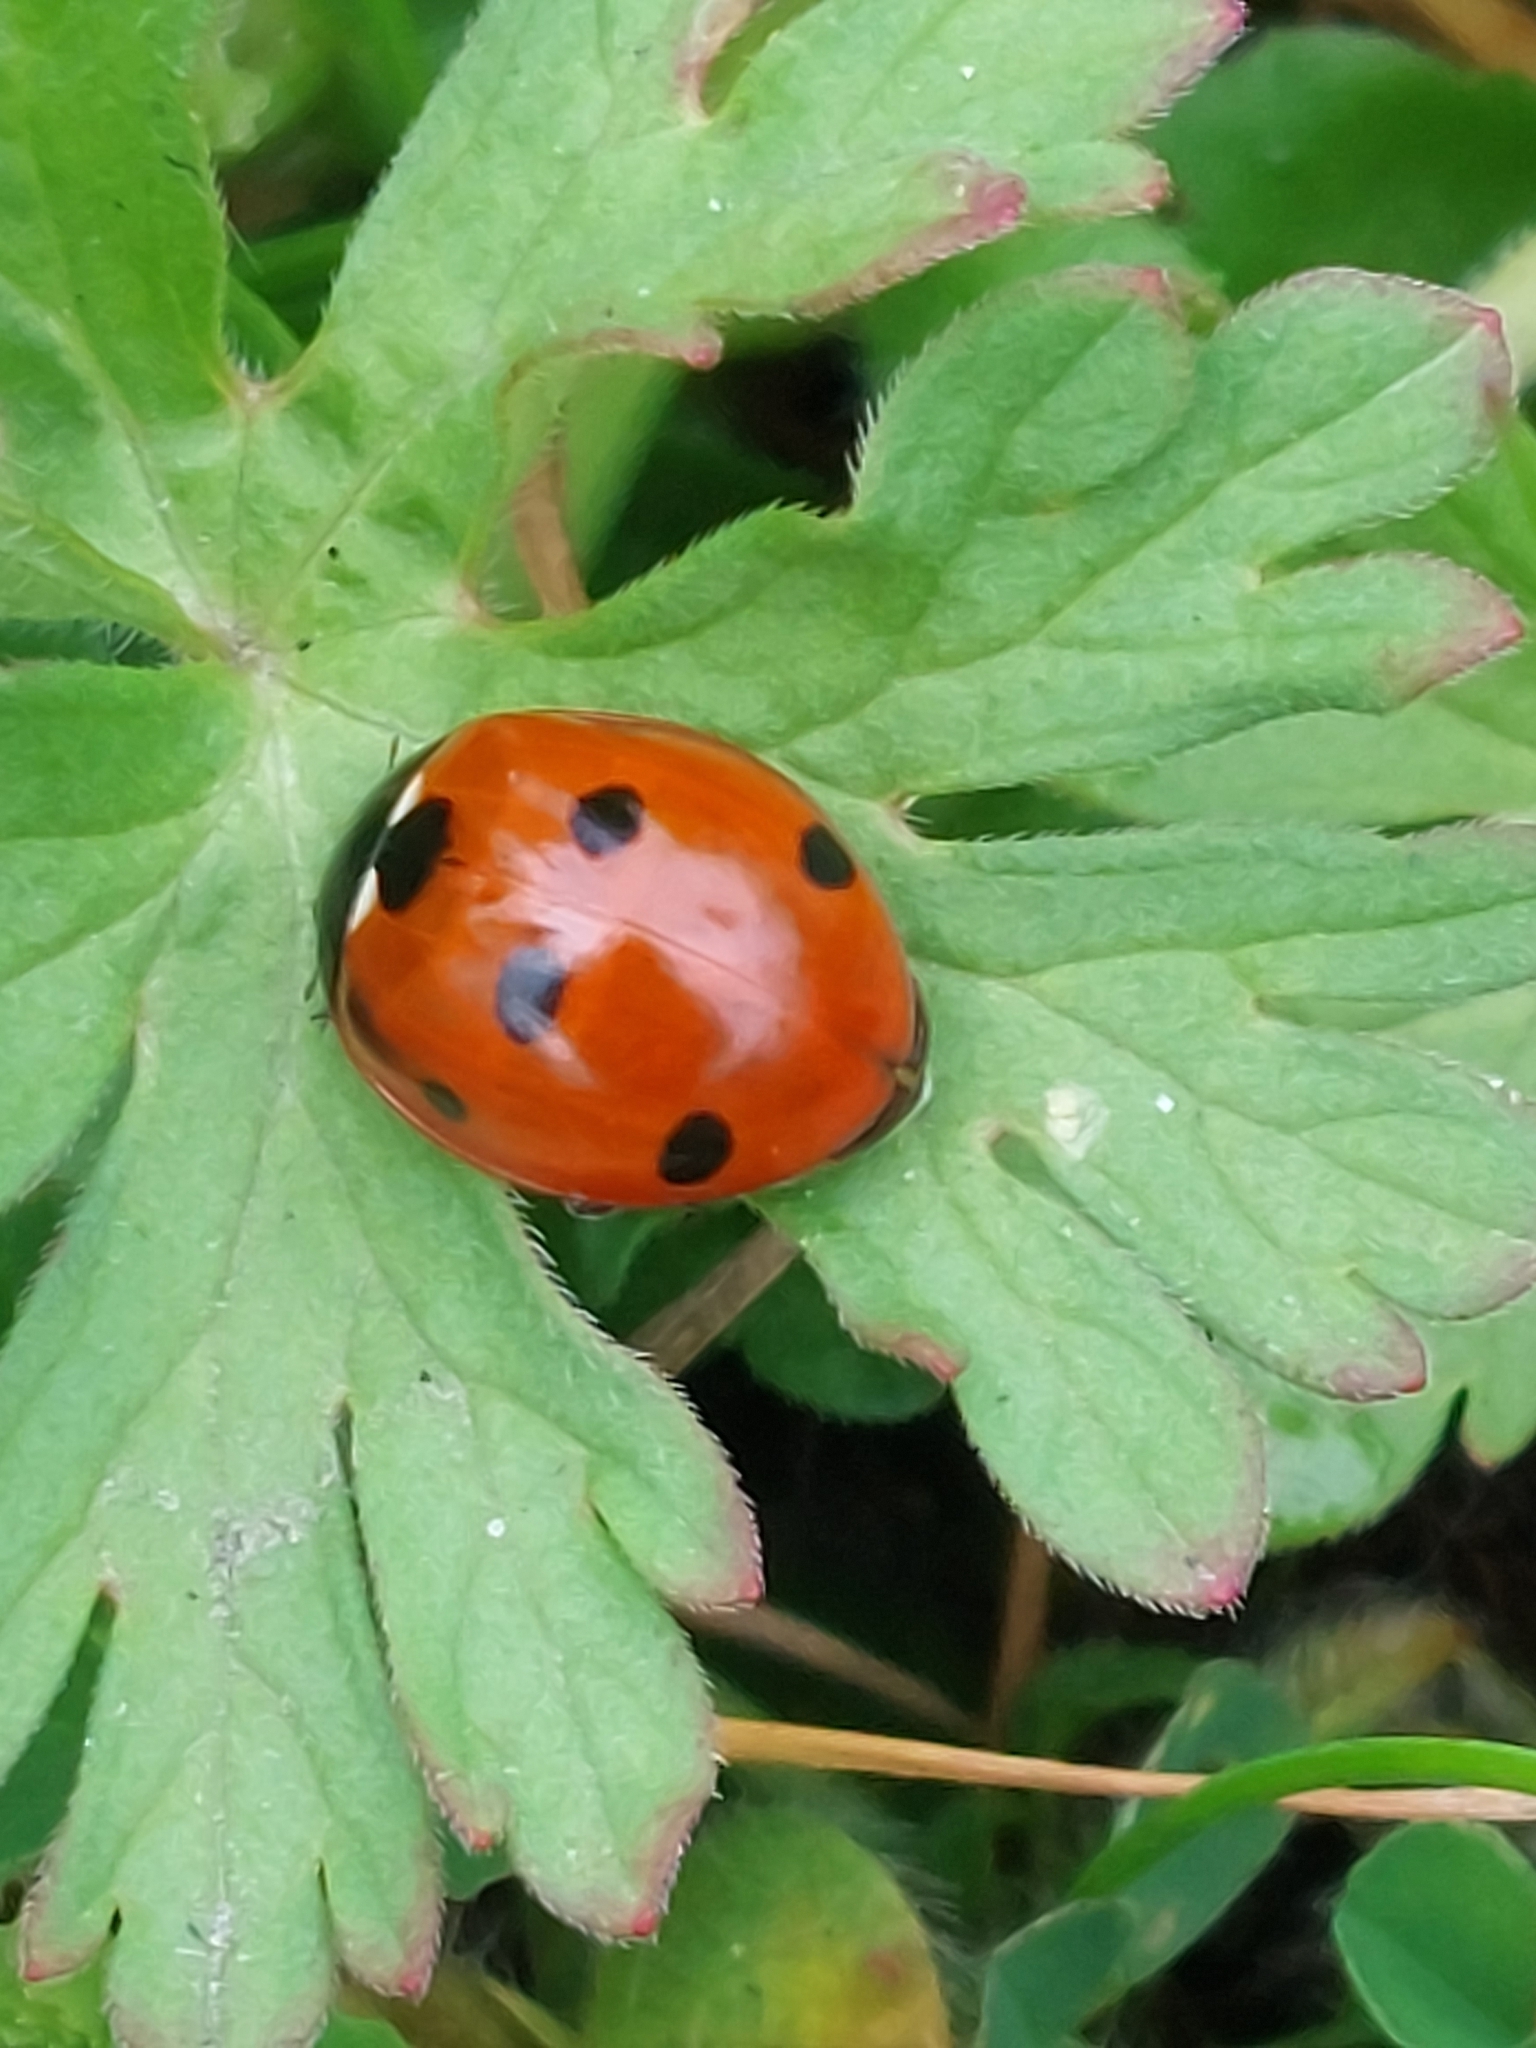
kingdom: Animalia
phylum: Arthropoda
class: Insecta
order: Coleoptera
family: Coccinellidae
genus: Coccinella
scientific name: Coccinella septempunctata
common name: Sevenspotted lady beetle
